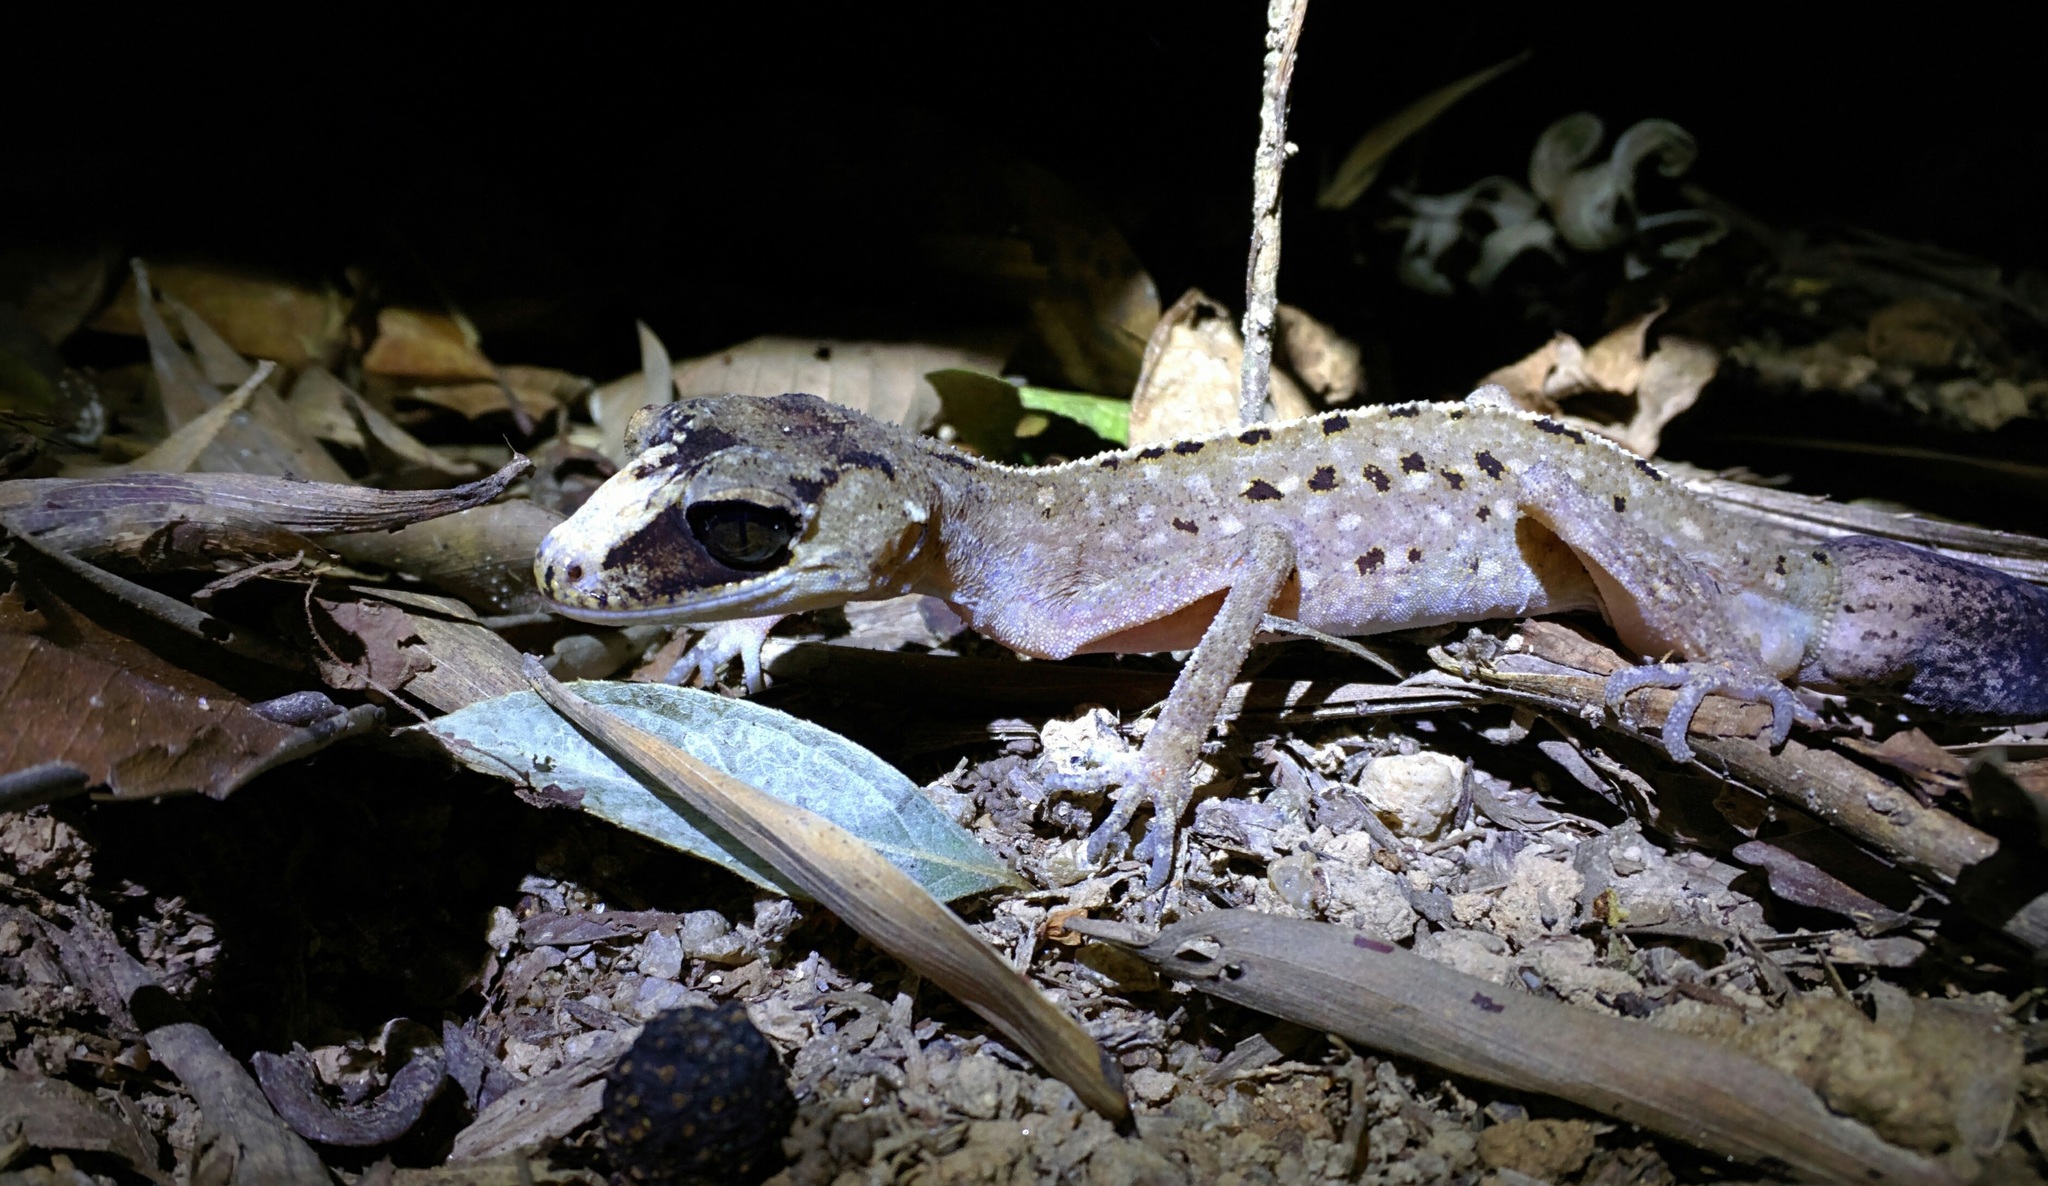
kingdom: Animalia
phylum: Chordata
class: Squamata
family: Carphodactylidae
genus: Carphodactylus
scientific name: Carphodactylus laevis
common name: Chameleon gecko
